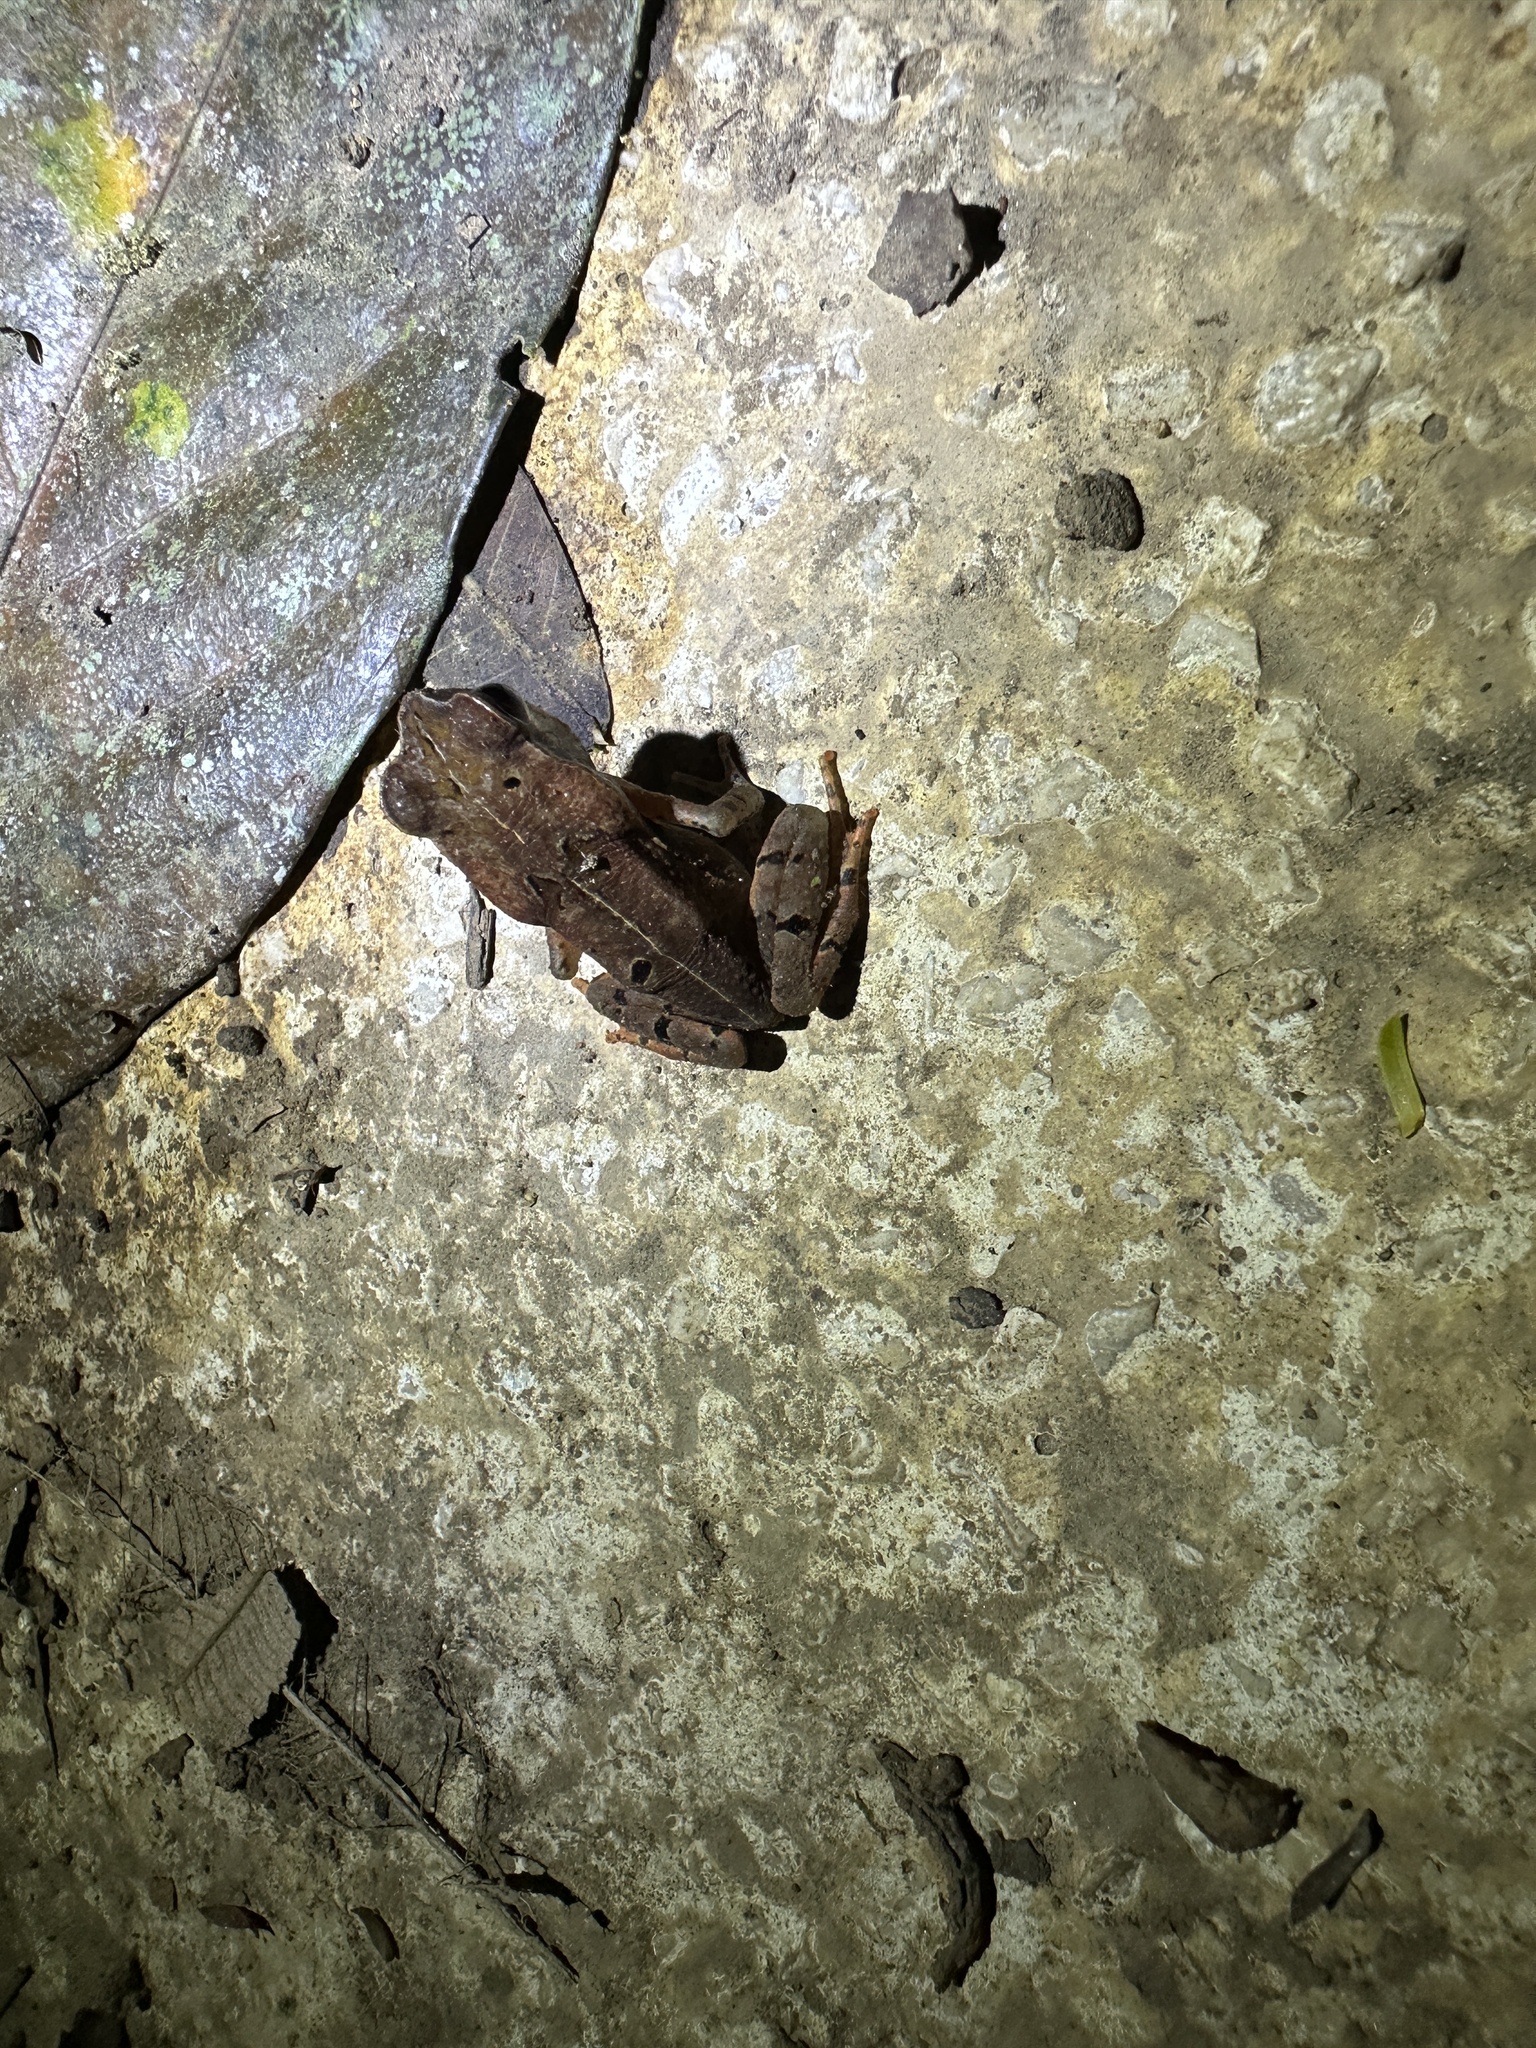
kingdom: Animalia
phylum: Chordata
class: Amphibia
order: Anura
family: Bufonidae
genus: Rhaebo
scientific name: Rhaebo haematiticus
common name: Truando toad
